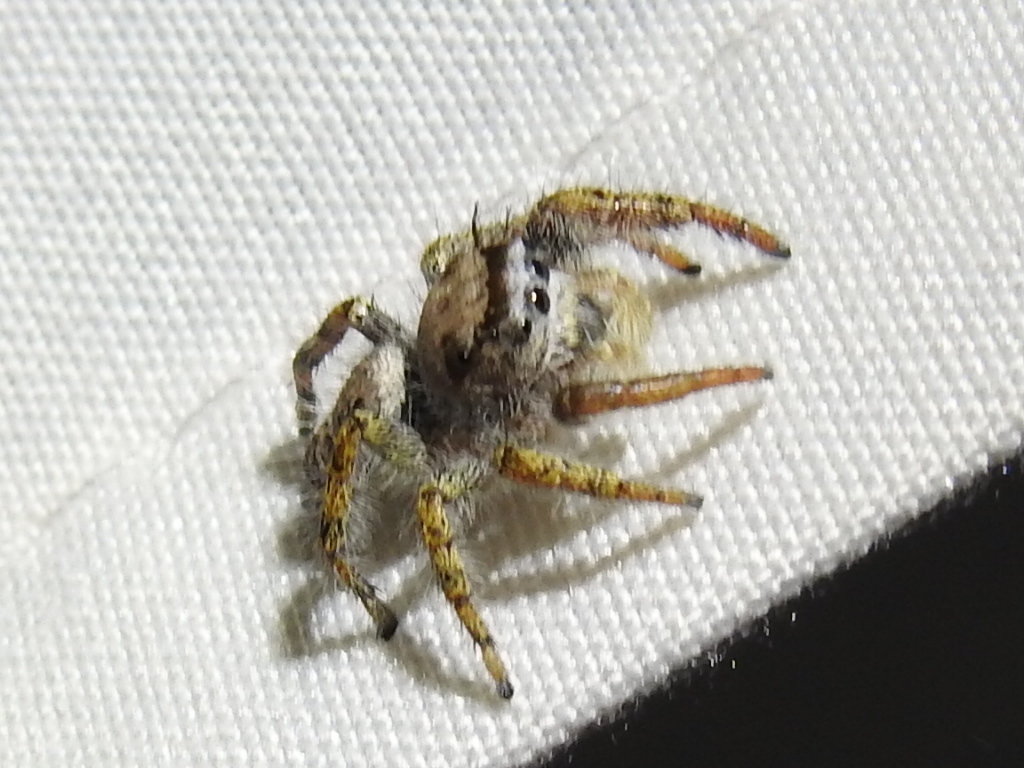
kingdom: Animalia
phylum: Arthropoda
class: Arachnida
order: Araneae
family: Salticidae
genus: Phidippus
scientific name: Phidippus carolinensis
